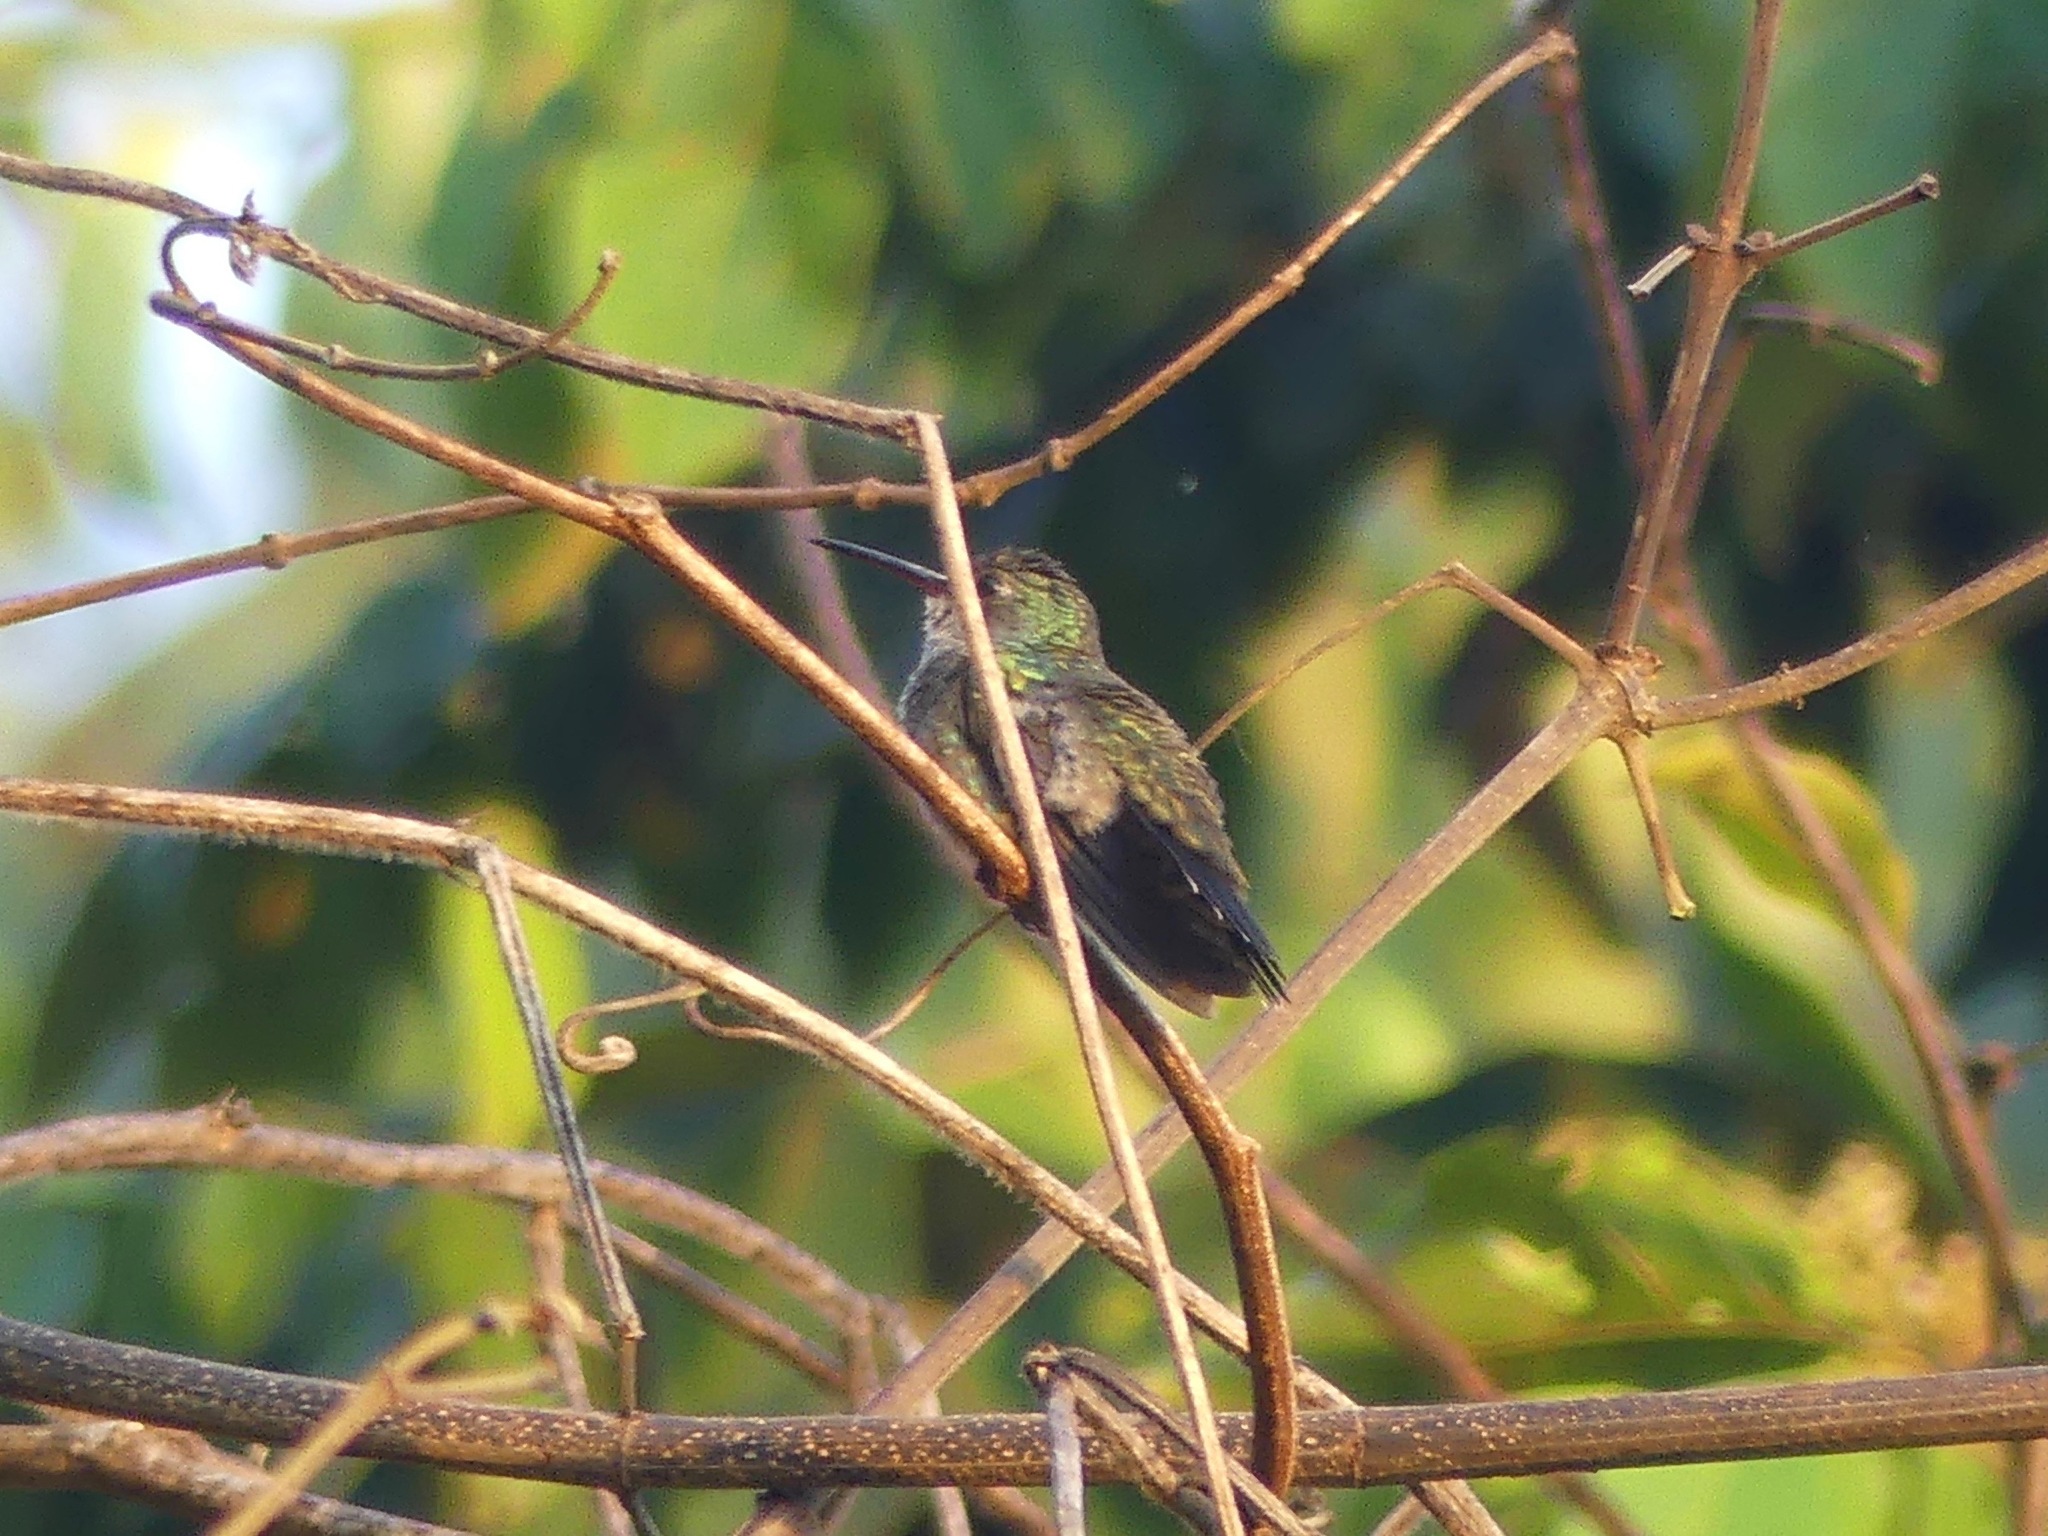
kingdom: Animalia
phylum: Chordata
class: Aves
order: Apodiformes
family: Trochilidae
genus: Chionomesa
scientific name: Chionomesa lactea
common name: Sapphire-spangled emerald
